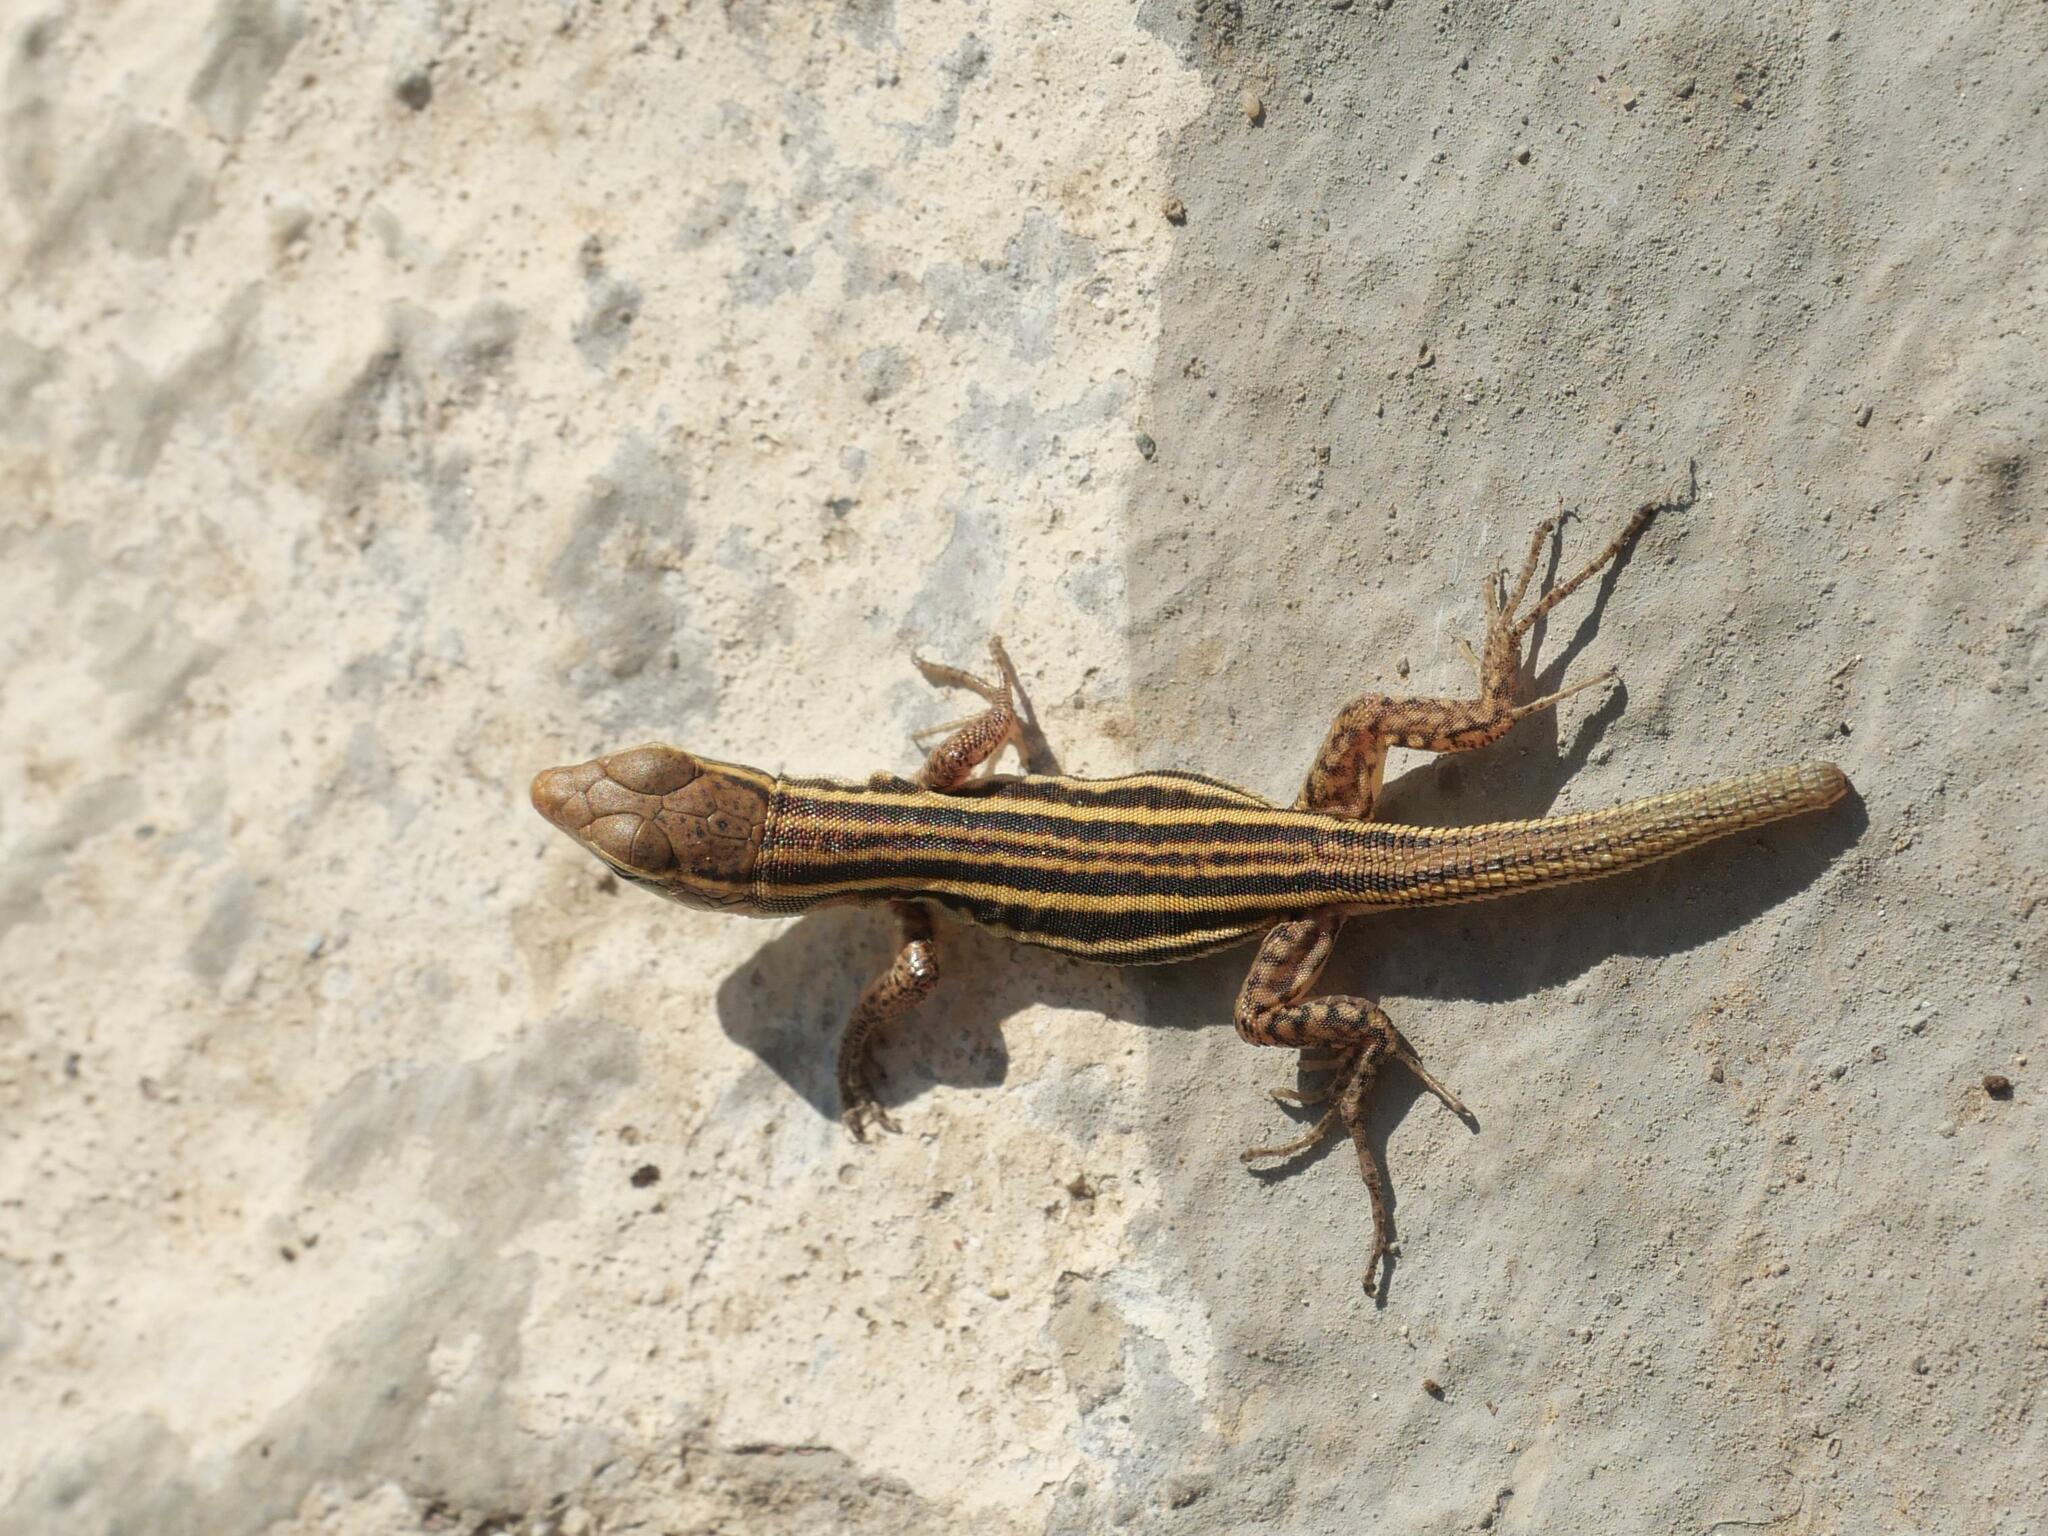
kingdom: Animalia
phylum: Chordata
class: Squamata
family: Lacertidae
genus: Podarcis
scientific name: Podarcis peloponnesiacus
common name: Peloponnese wall lizard
